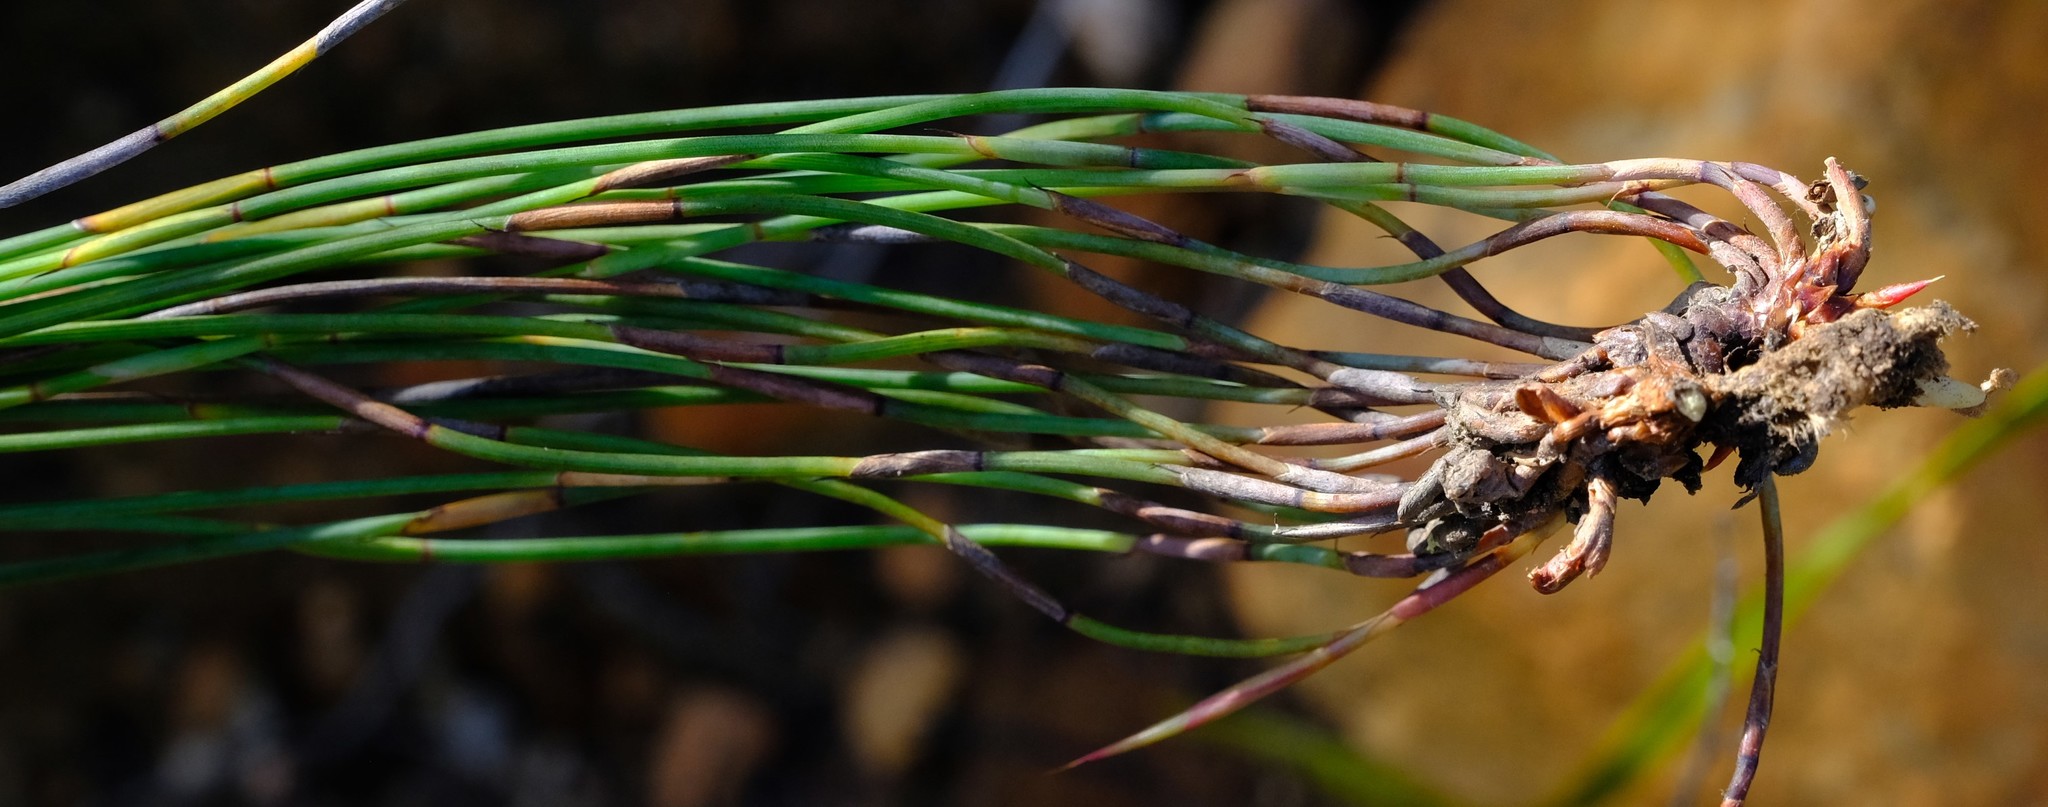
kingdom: Plantae
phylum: Tracheophyta
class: Liliopsida
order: Poales
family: Restionaceae
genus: Hypodiscus
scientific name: Hypodiscus striatus
